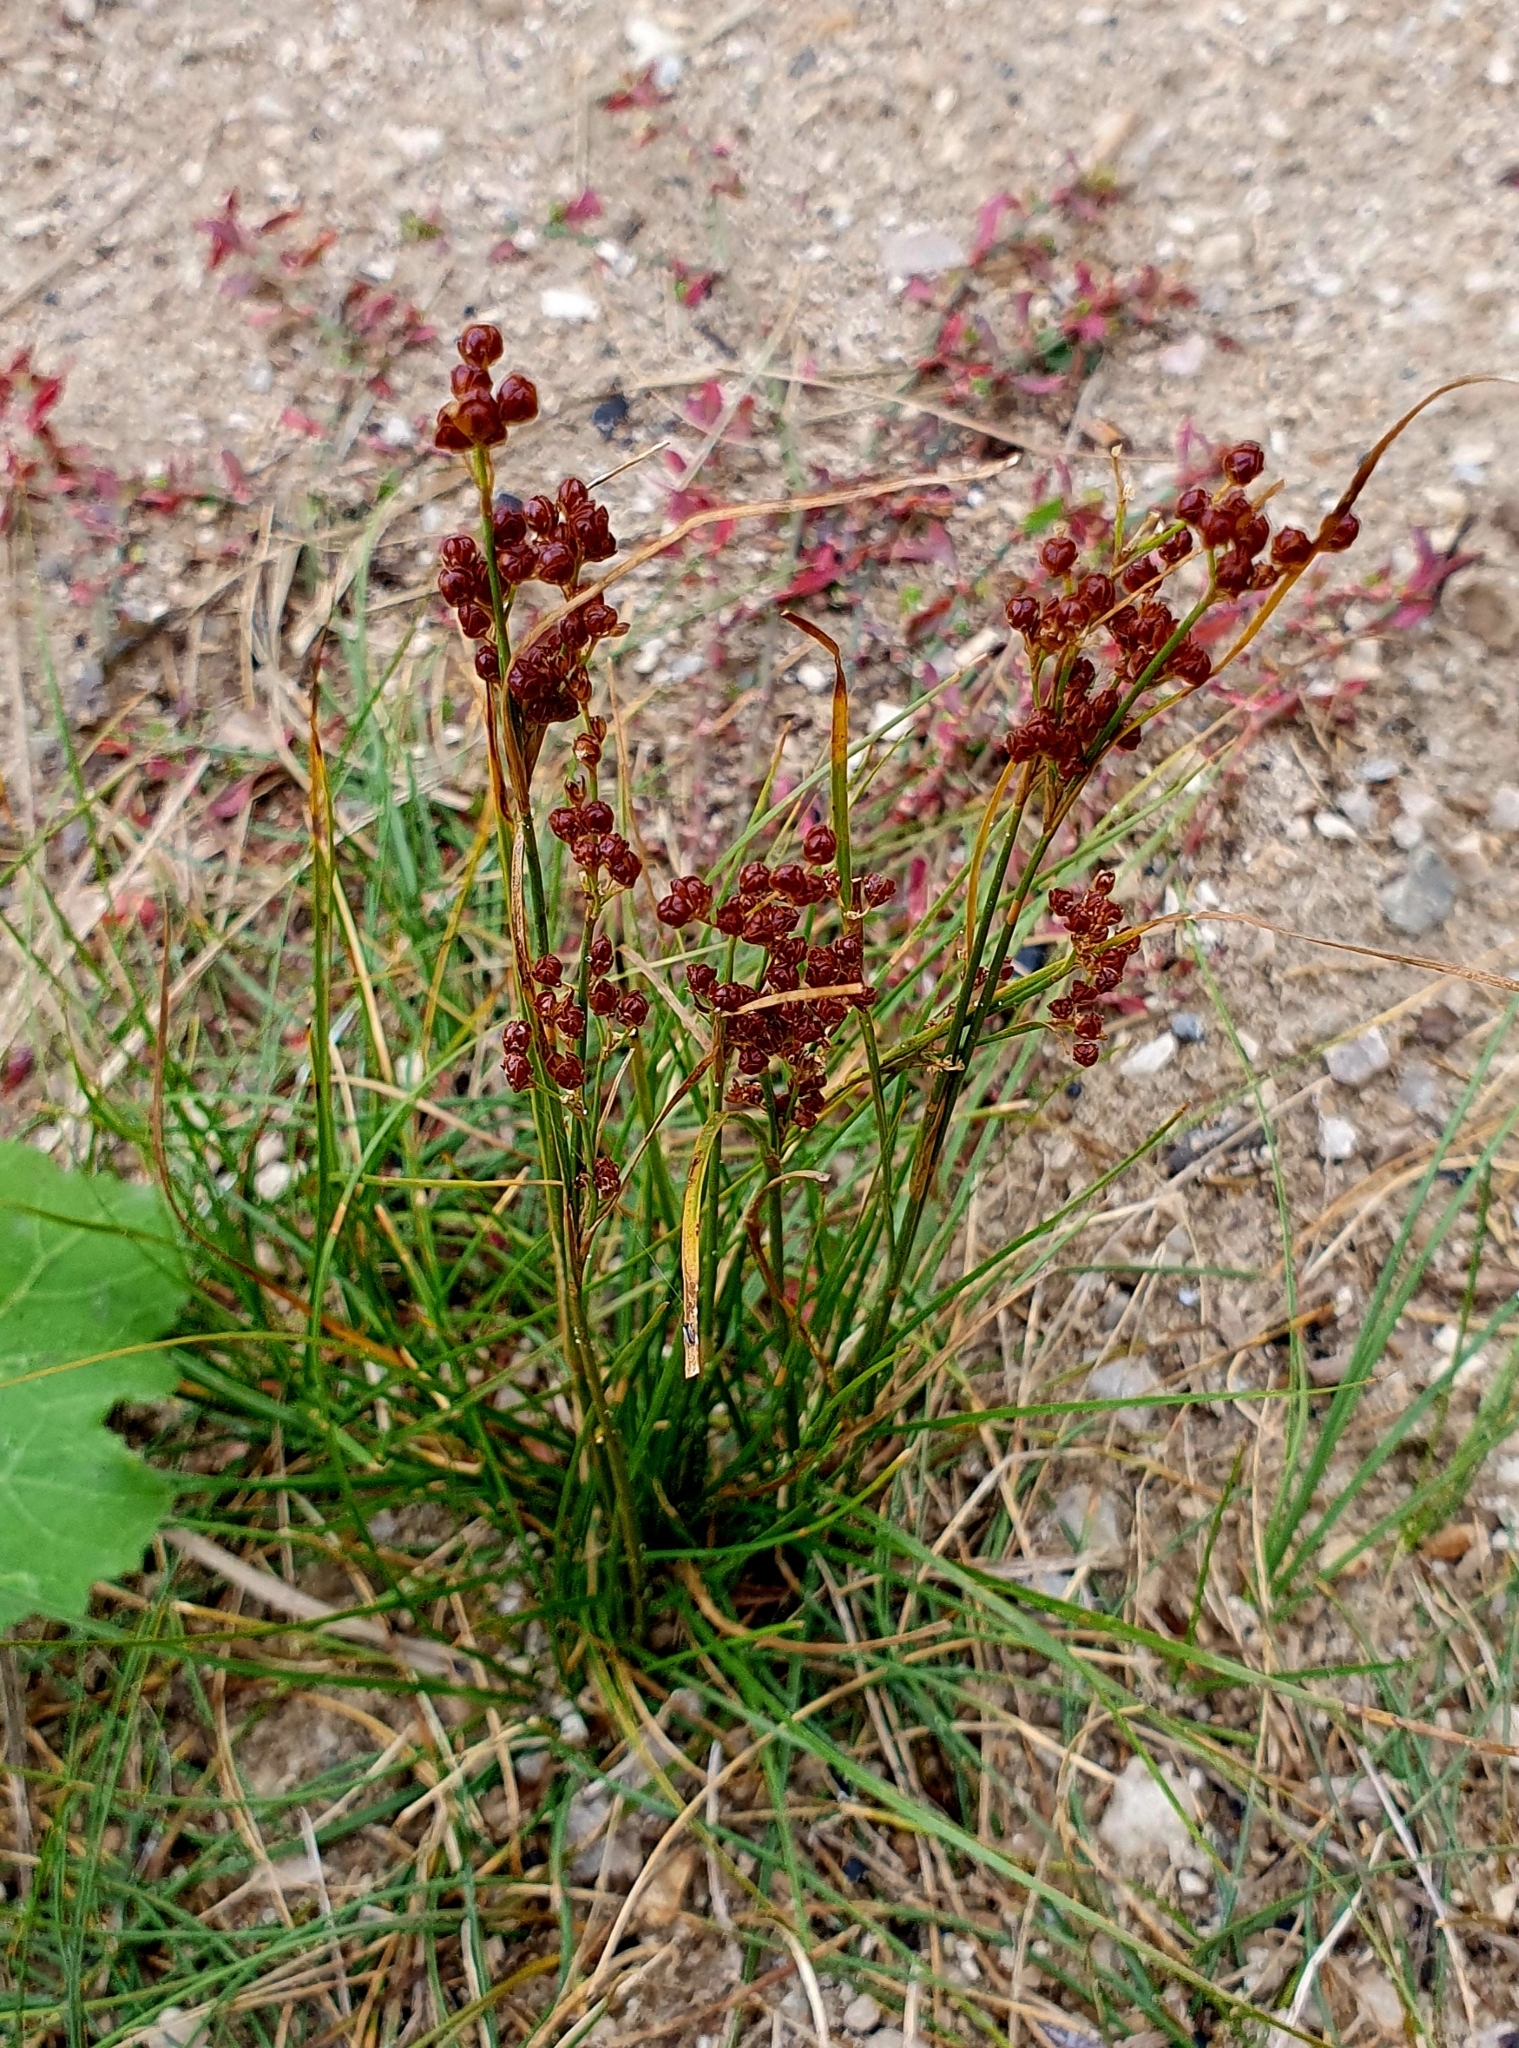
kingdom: Plantae
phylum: Tracheophyta
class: Liliopsida
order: Poales
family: Juncaceae
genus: Juncus
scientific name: Juncus compressus
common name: Round-fruited rush
